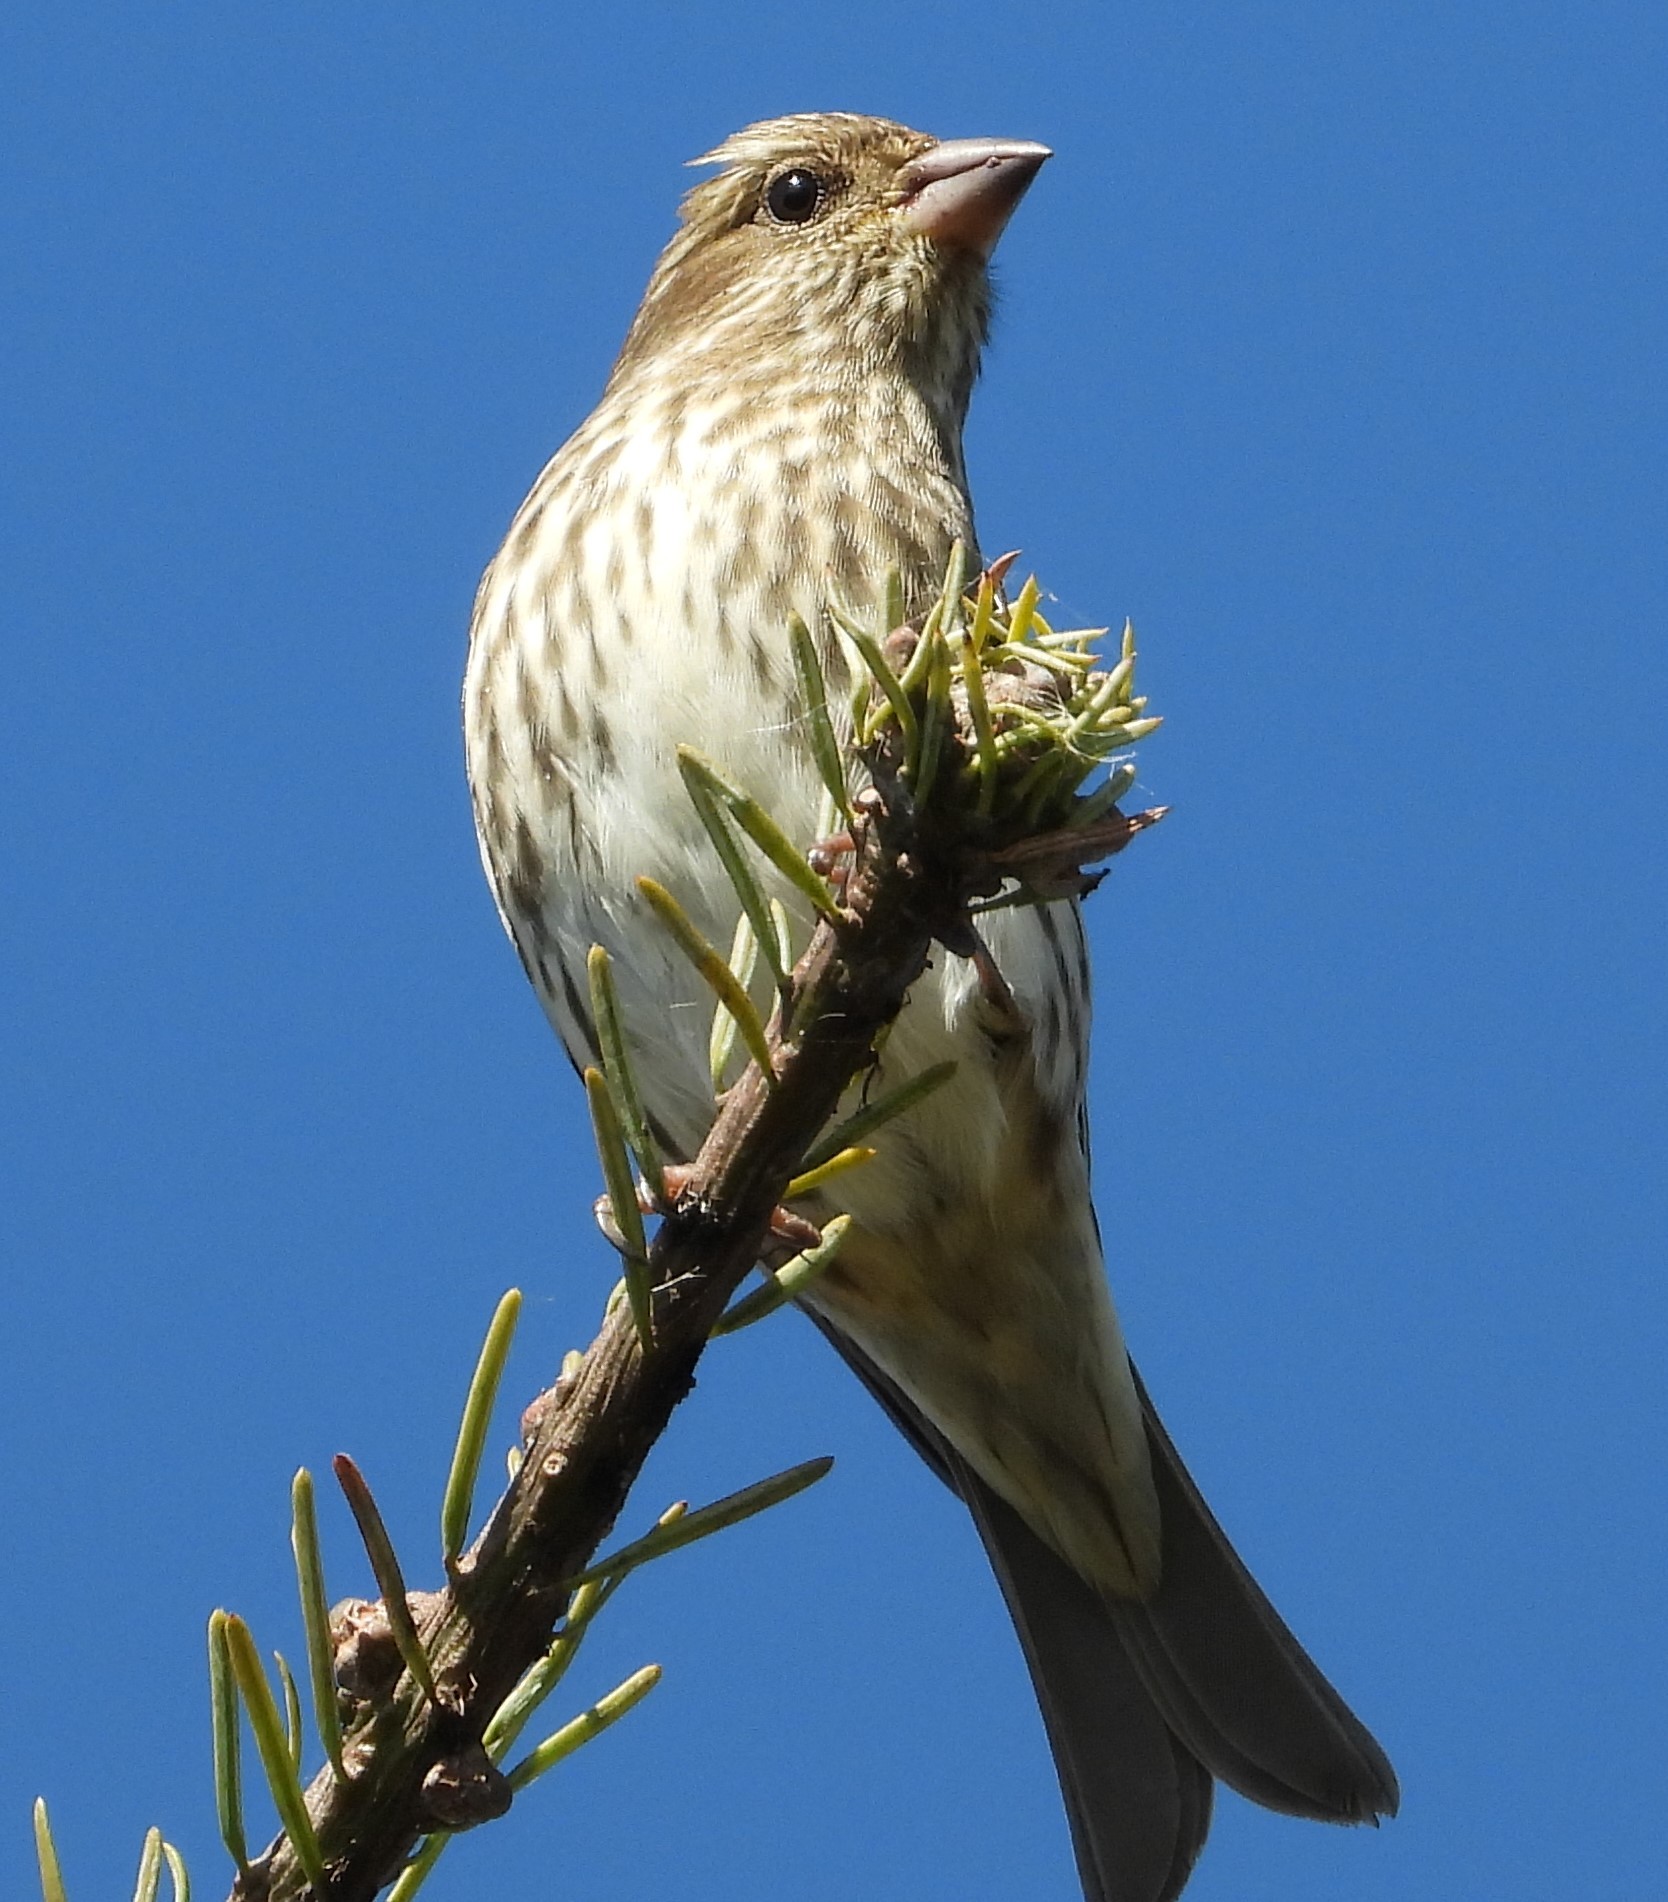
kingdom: Animalia
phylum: Chordata
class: Aves
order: Passeriformes
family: Fringillidae
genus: Haemorhous
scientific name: Haemorhous purpureus
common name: Purple finch
